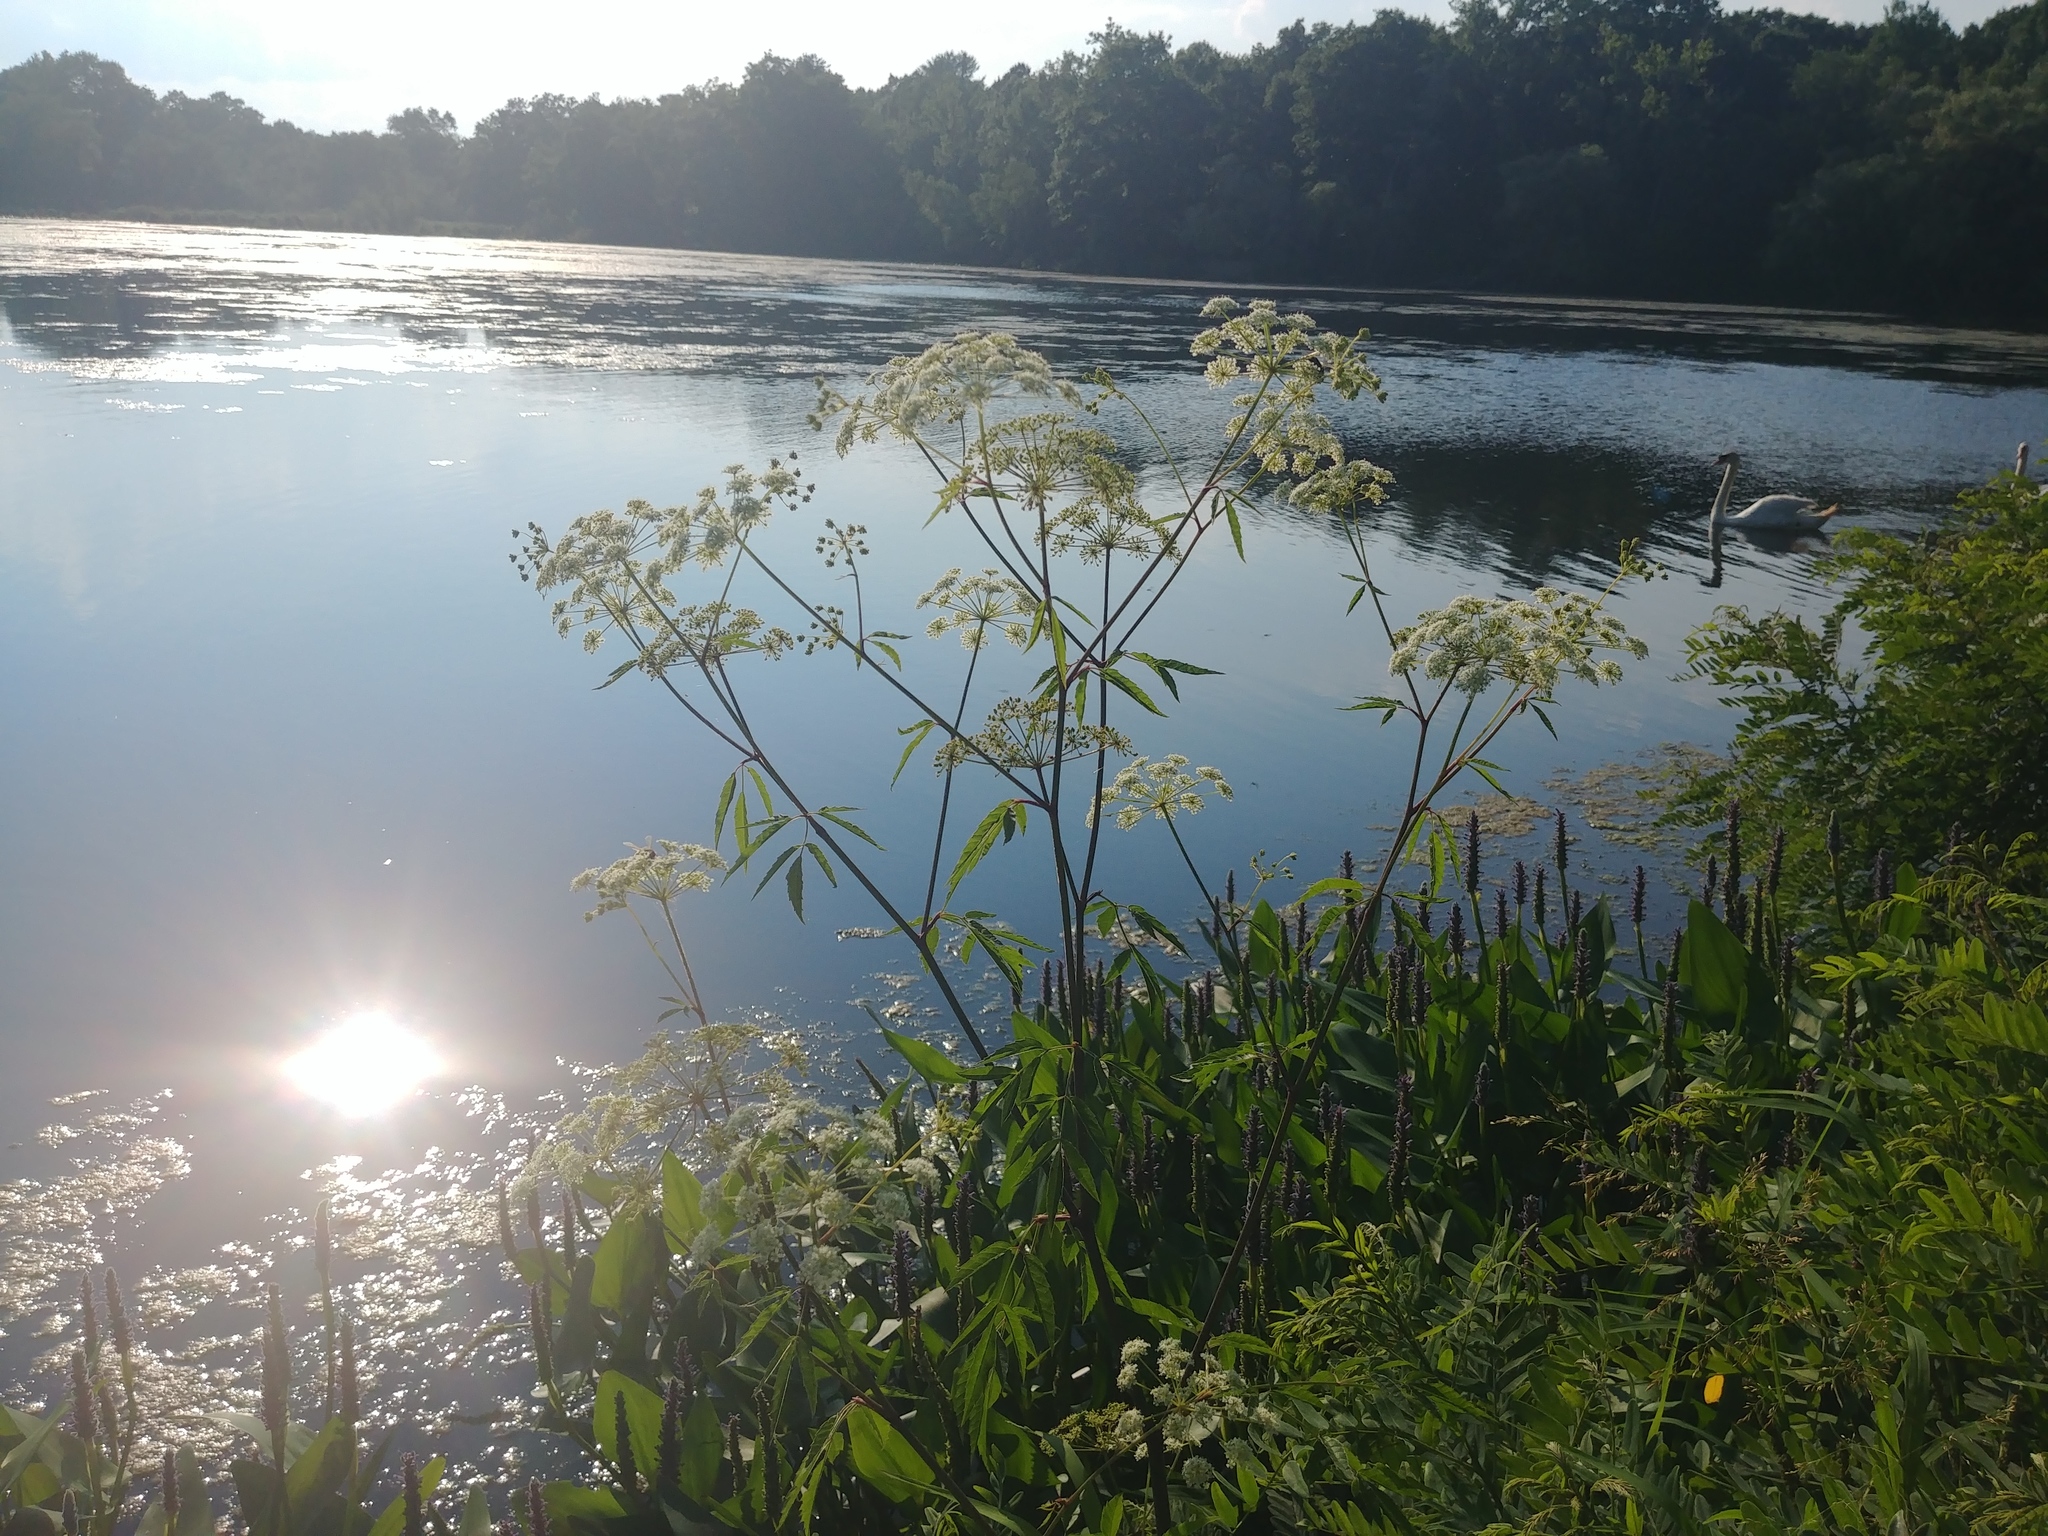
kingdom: Plantae
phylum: Tracheophyta
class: Magnoliopsida
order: Apiales
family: Apiaceae
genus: Cicuta
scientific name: Cicuta maculata
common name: Spotted cowbane
